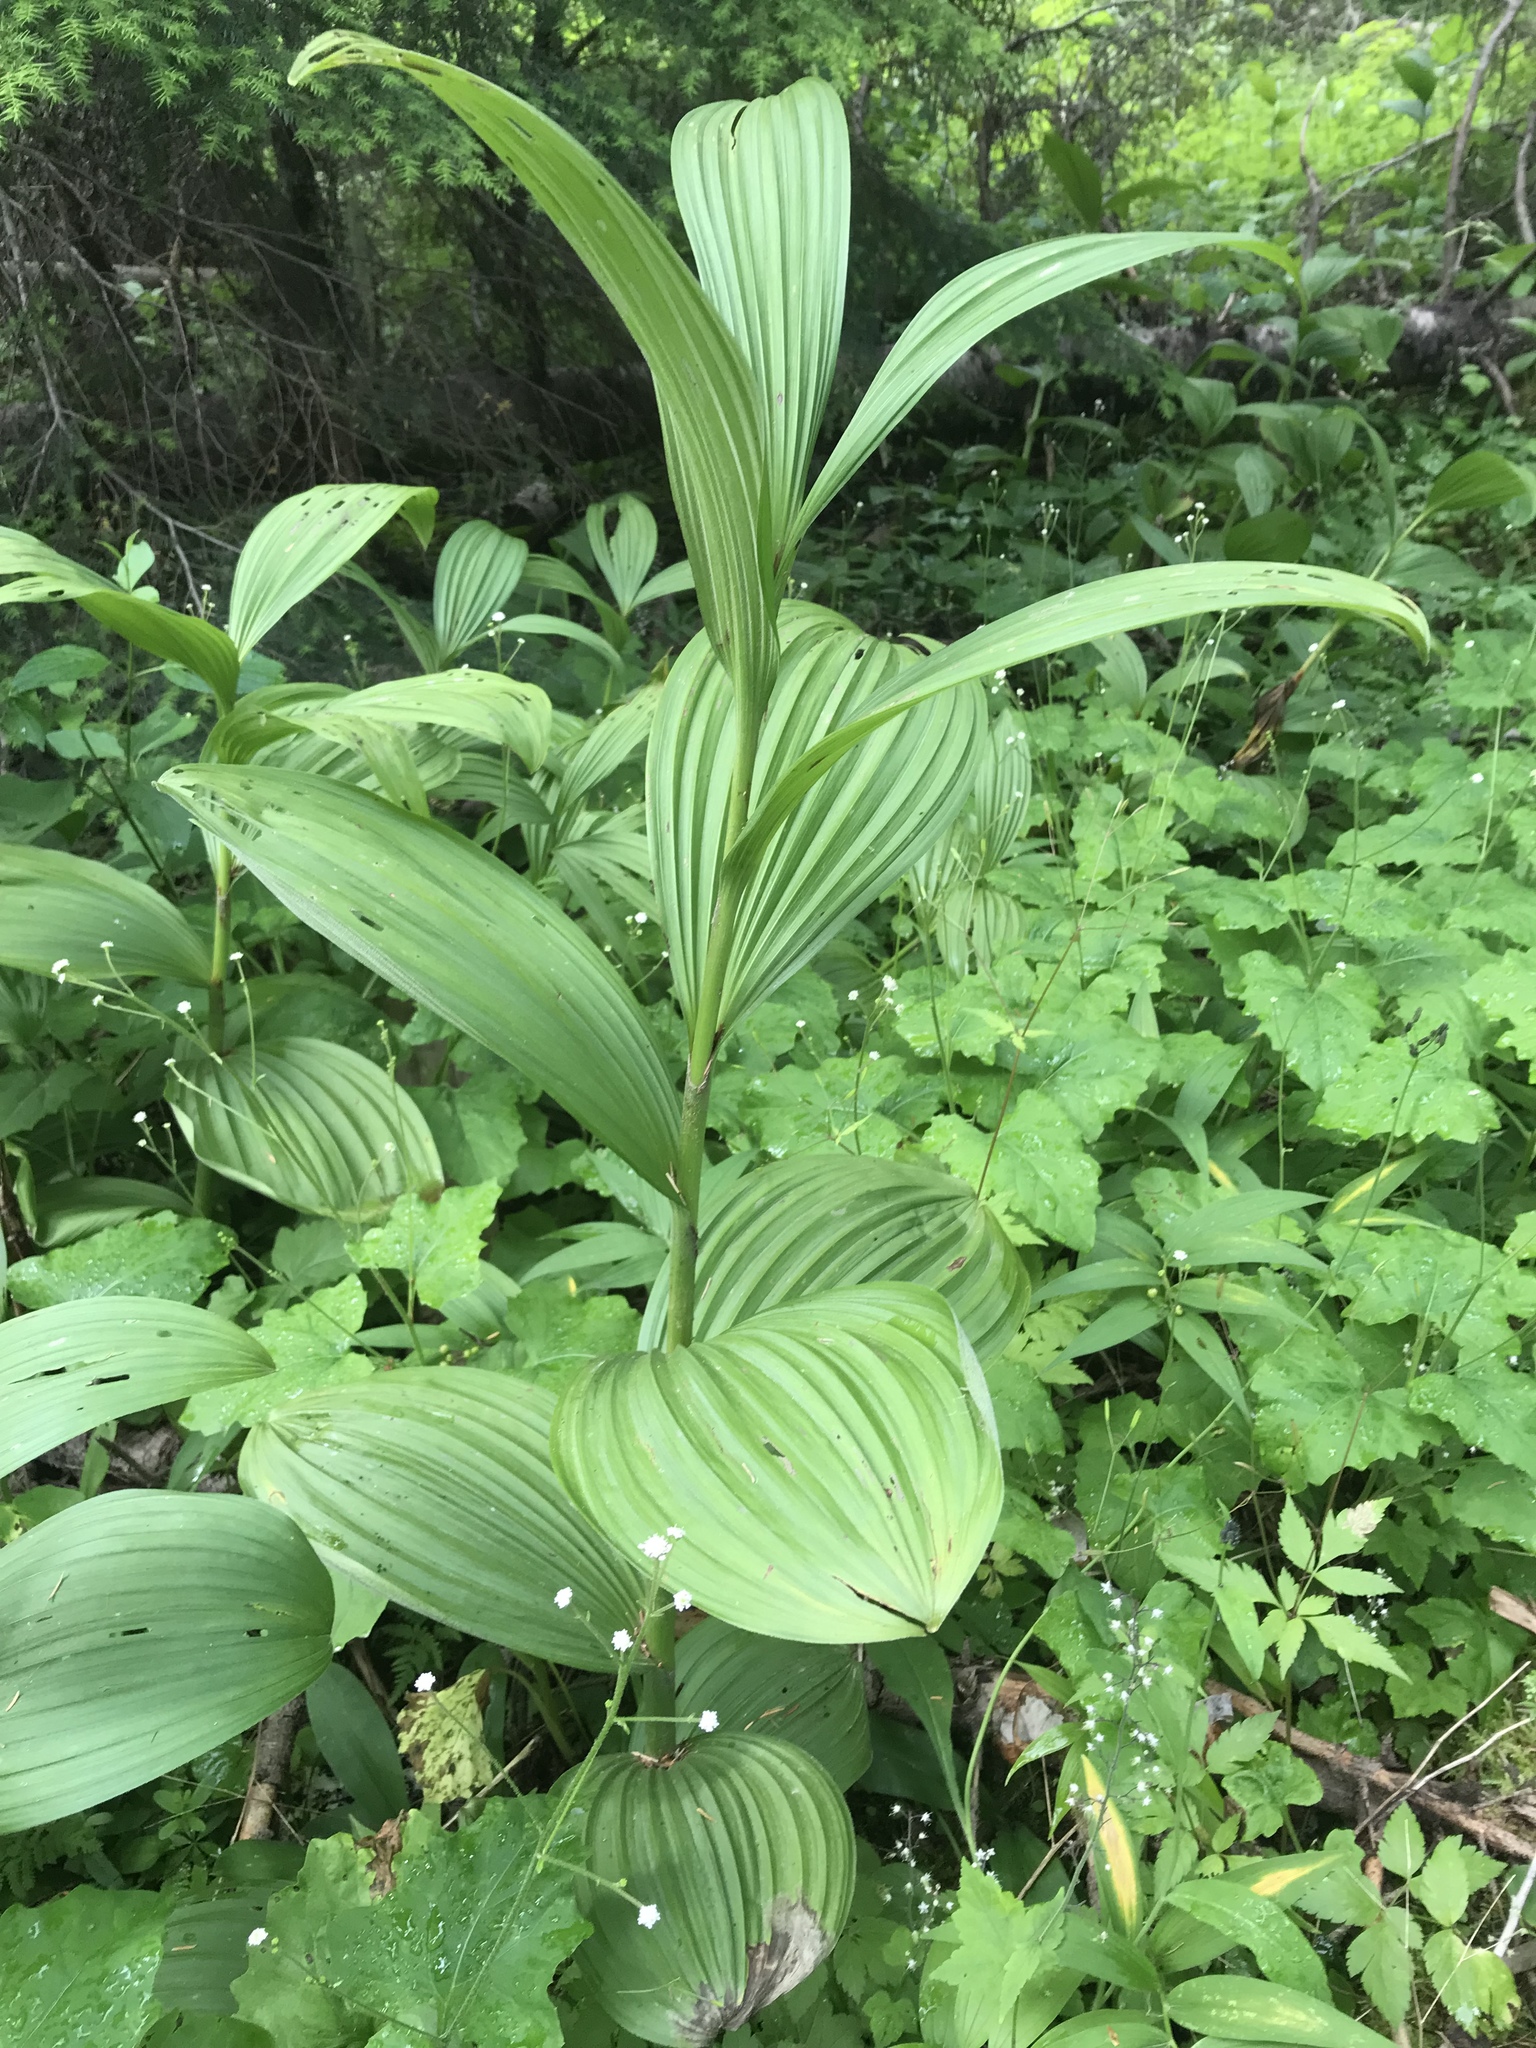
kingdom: Plantae
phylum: Tracheophyta
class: Liliopsida
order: Liliales
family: Melanthiaceae
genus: Veratrum
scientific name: Veratrum viride
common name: American false hellebore
